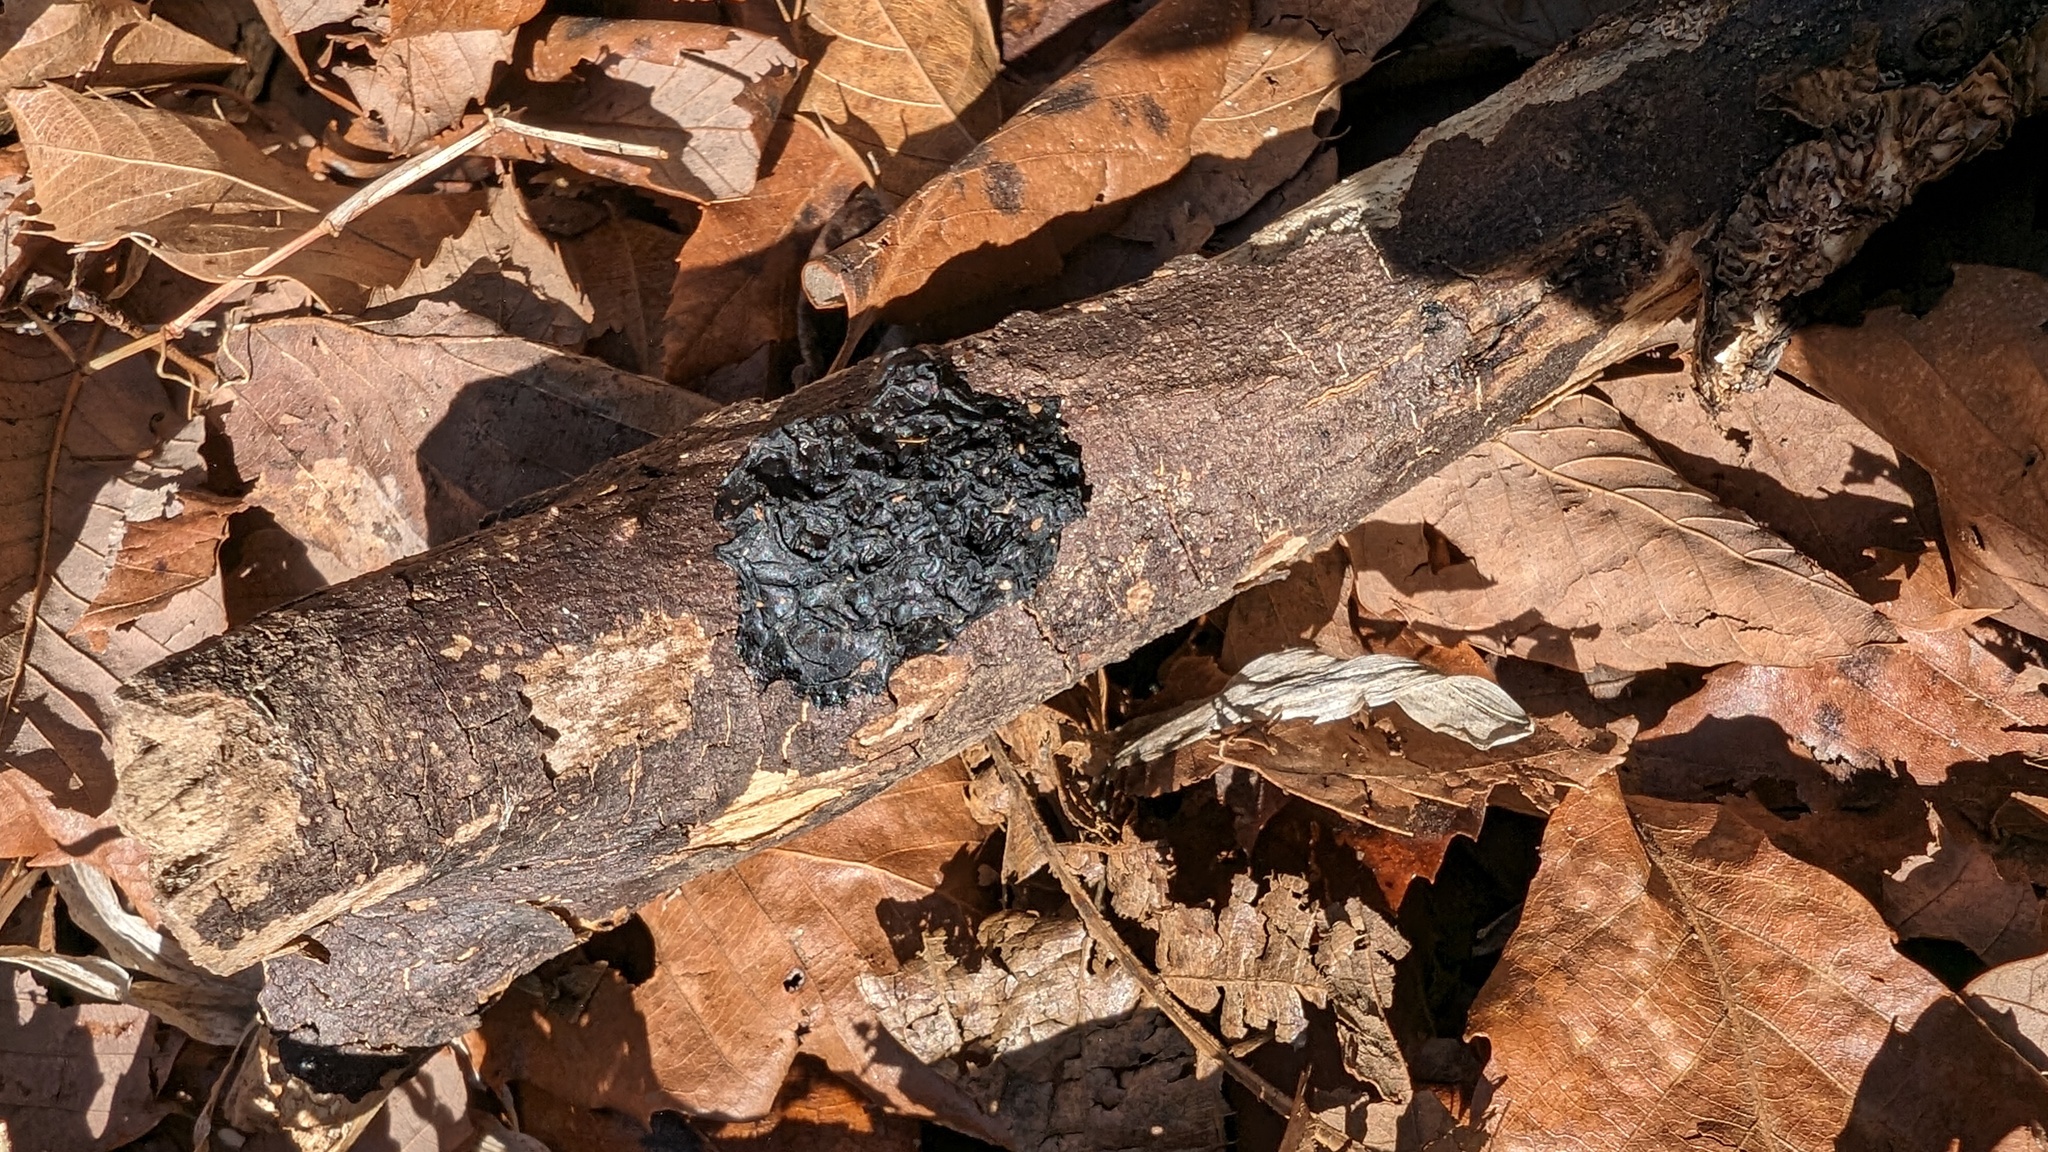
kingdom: Fungi
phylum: Basidiomycota
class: Agaricomycetes
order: Auriculariales
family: Auriculariaceae
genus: Exidia
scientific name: Exidia glandulosa
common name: Witches' butter
